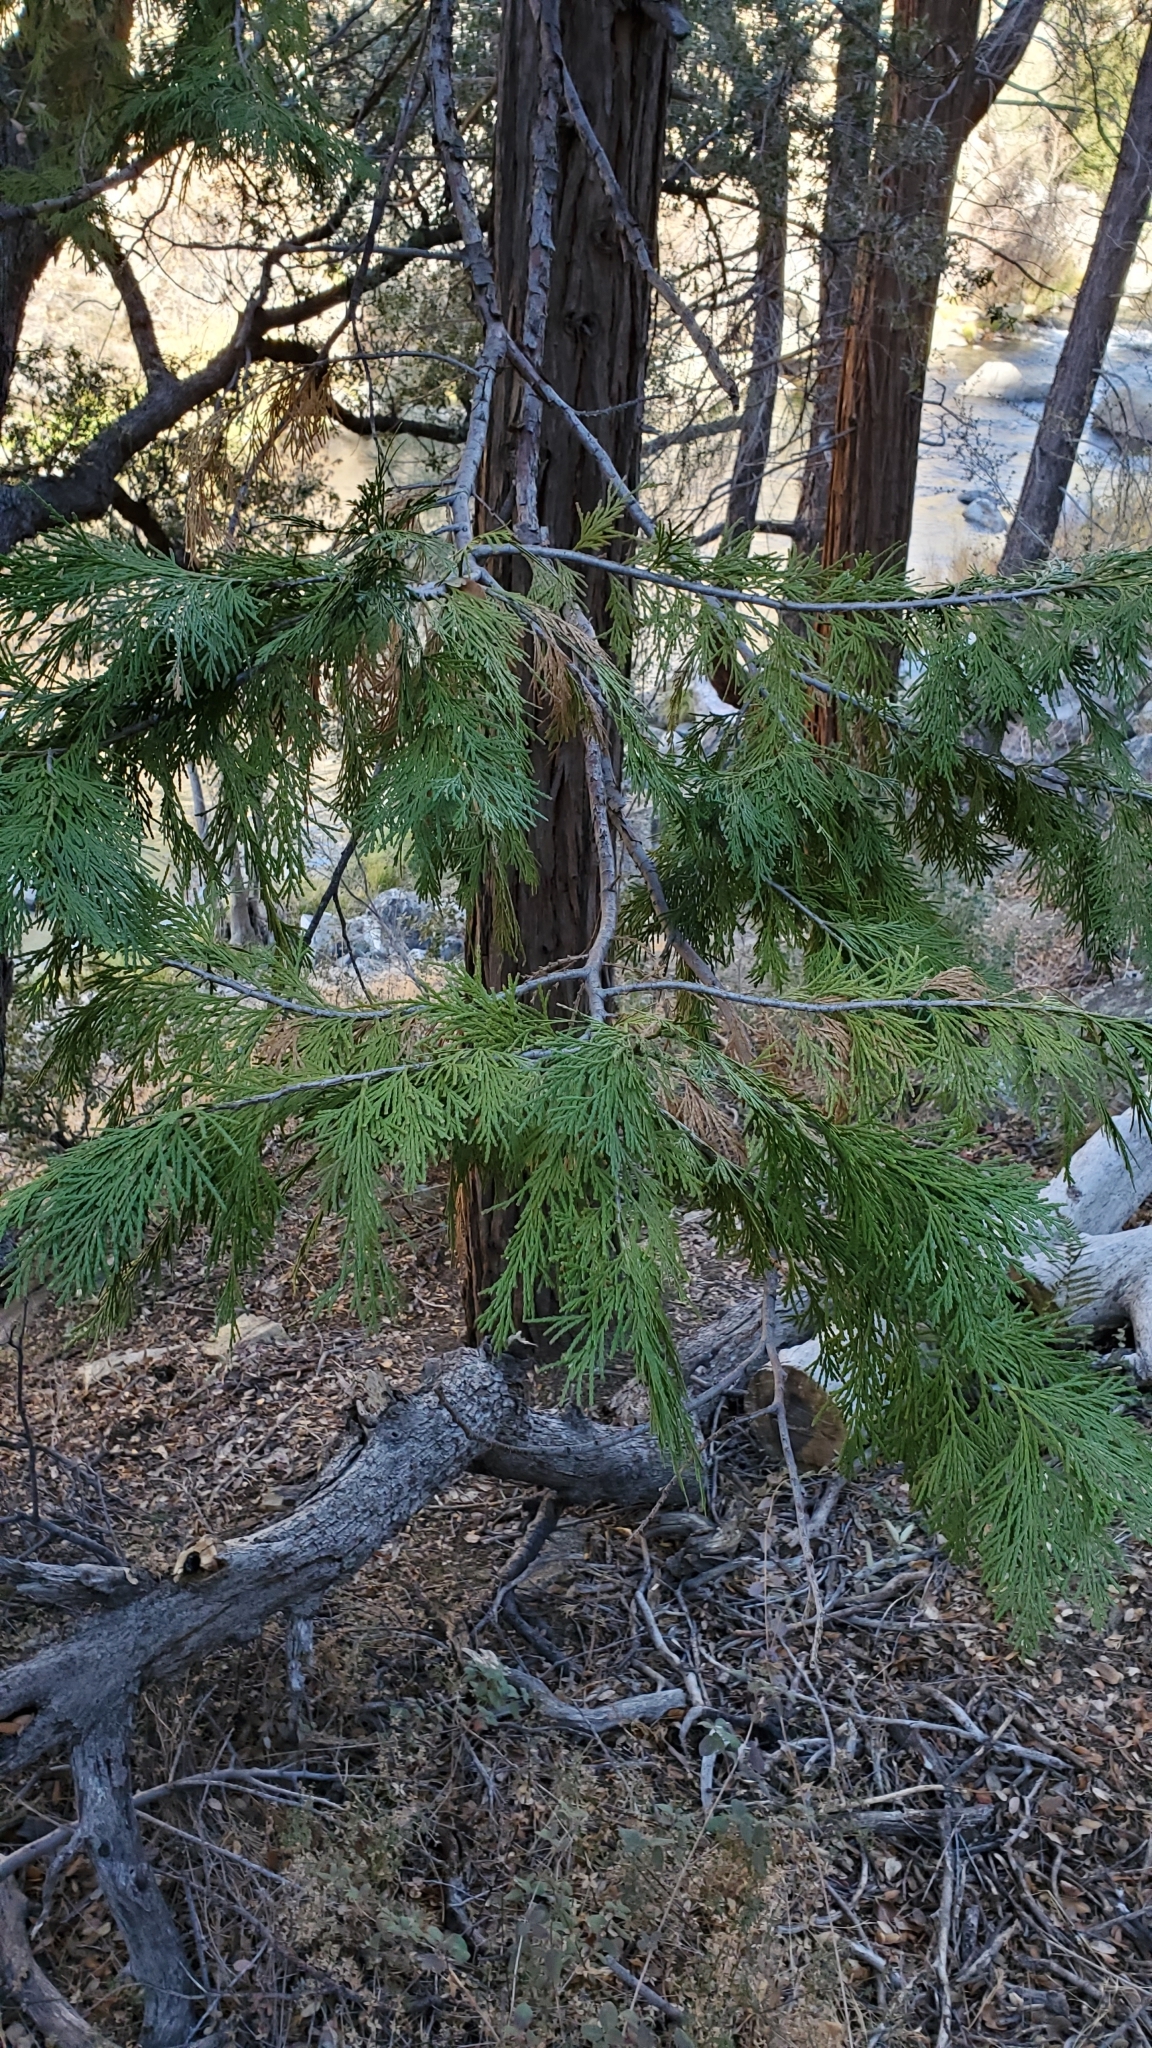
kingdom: Plantae
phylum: Tracheophyta
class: Pinopsida
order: Pinales
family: Cupressaceae
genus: Calocedrus
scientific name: Calocedrus decurrens
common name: Californian incense-cedar
